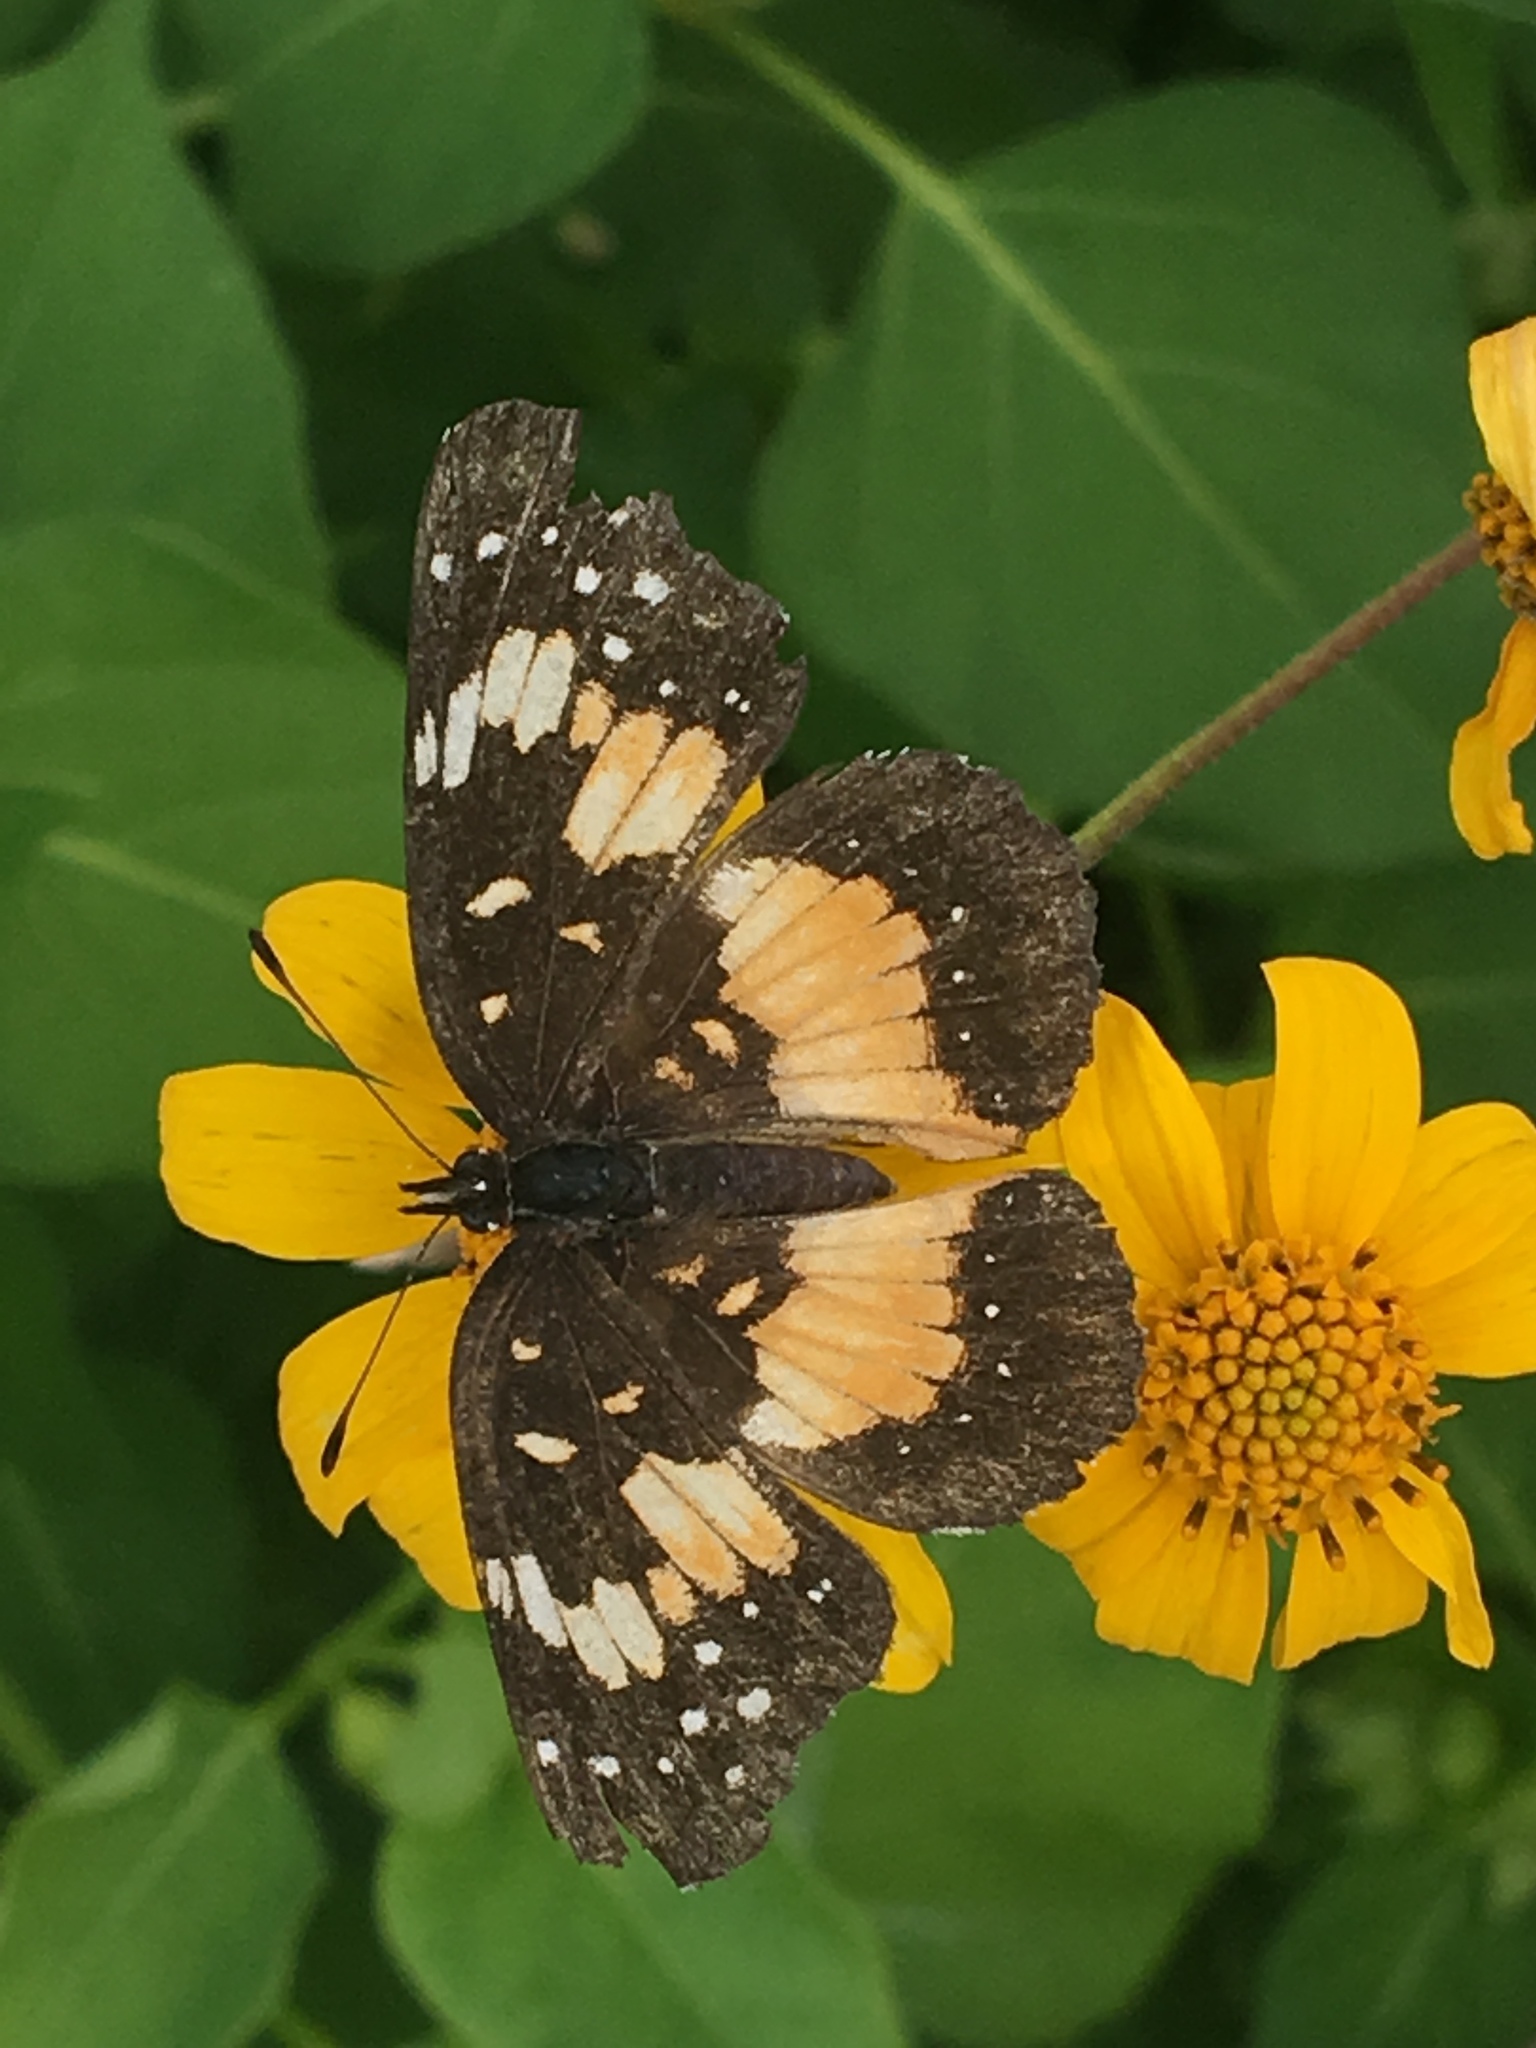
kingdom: Animalia
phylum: Arthropoda
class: Insecta
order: Lepidoptera
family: Nymphalidae
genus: Chlosyne
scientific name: Chlosyne lacinia
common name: Bordered patch
